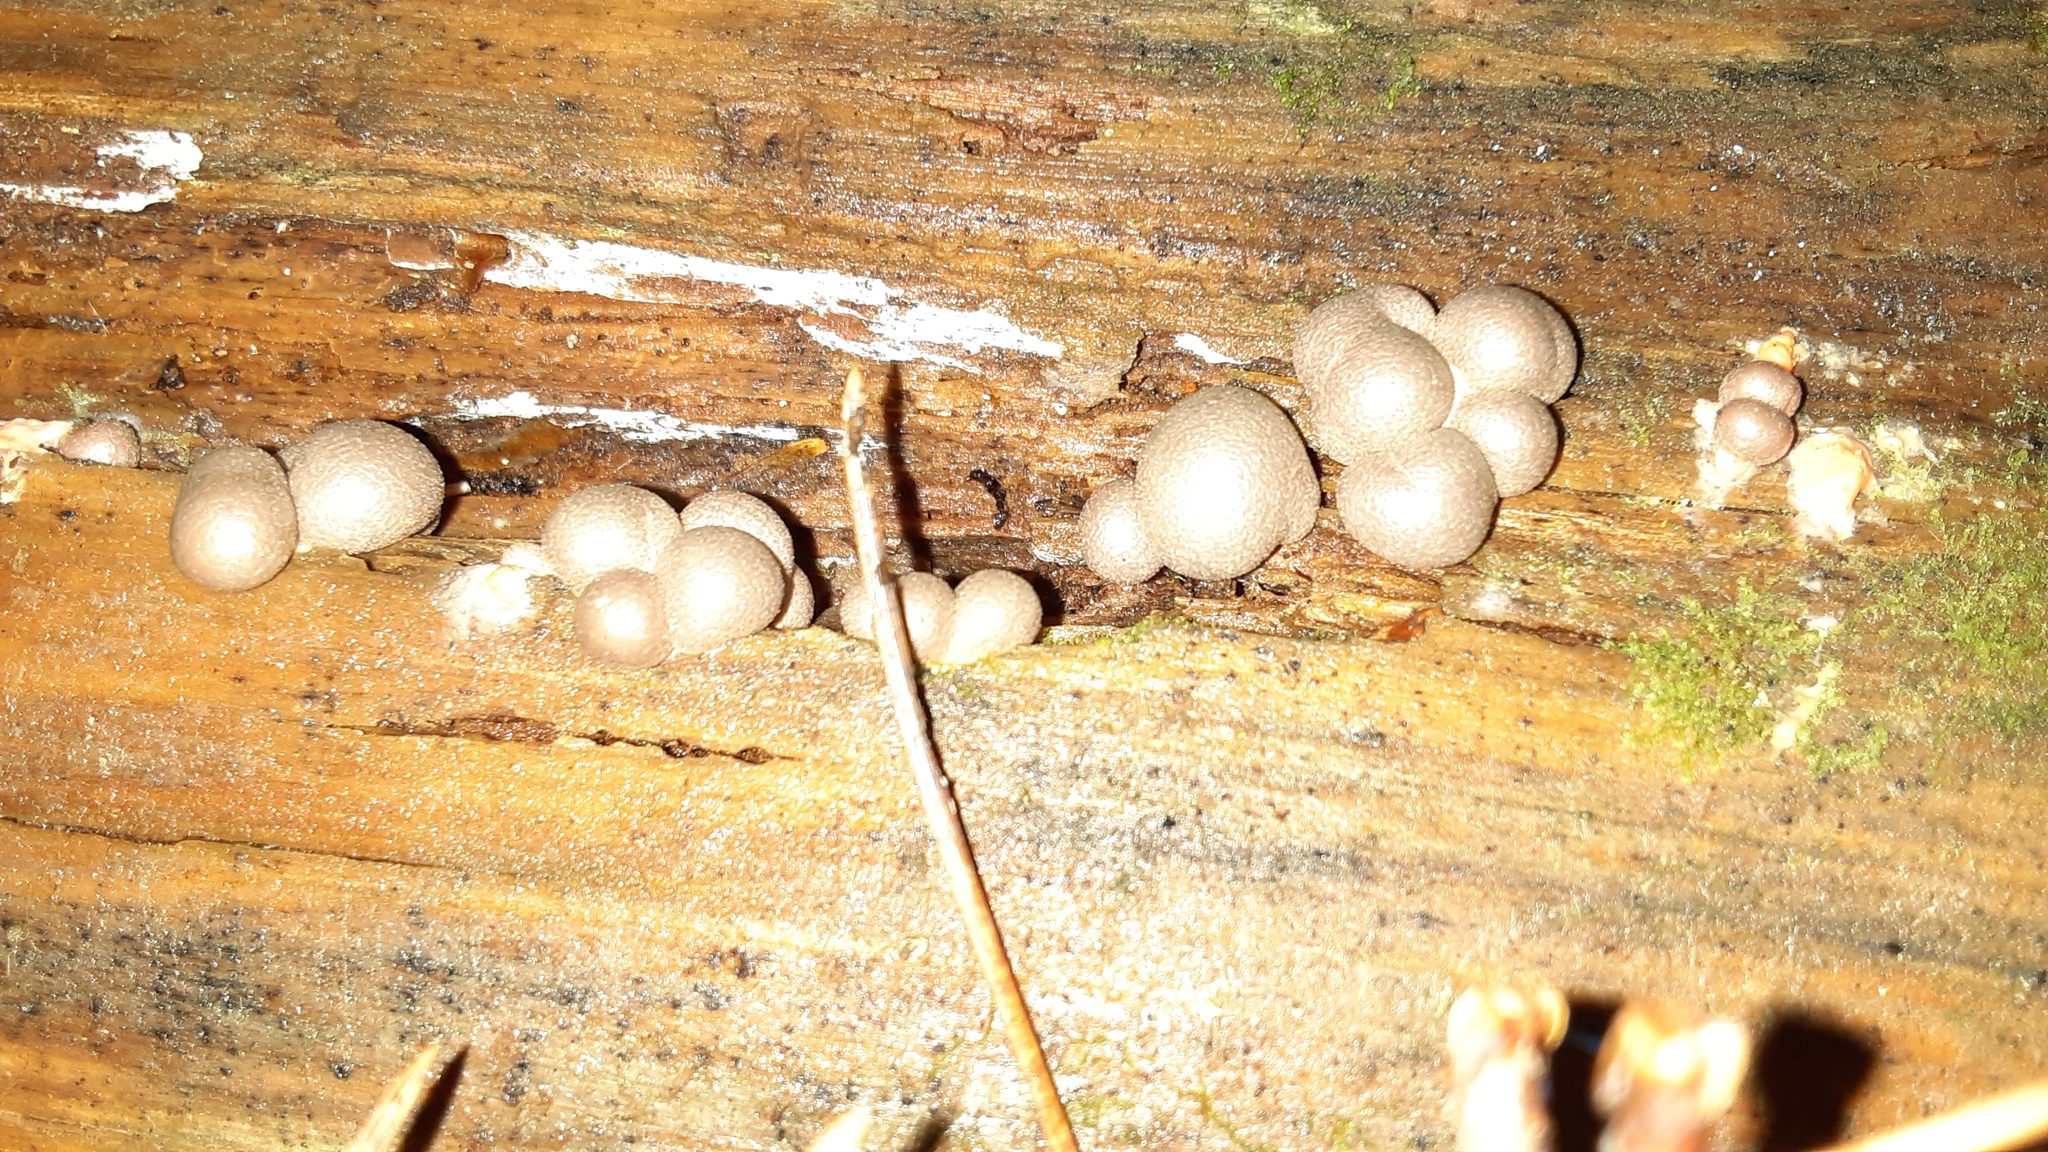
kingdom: Protozoa
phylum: Mycetozoa
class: Myxomycetes
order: Cribrariales
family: Tubiferaceae
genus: Lycogala
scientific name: Lycogala epidendrum
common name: Wolf's milk
